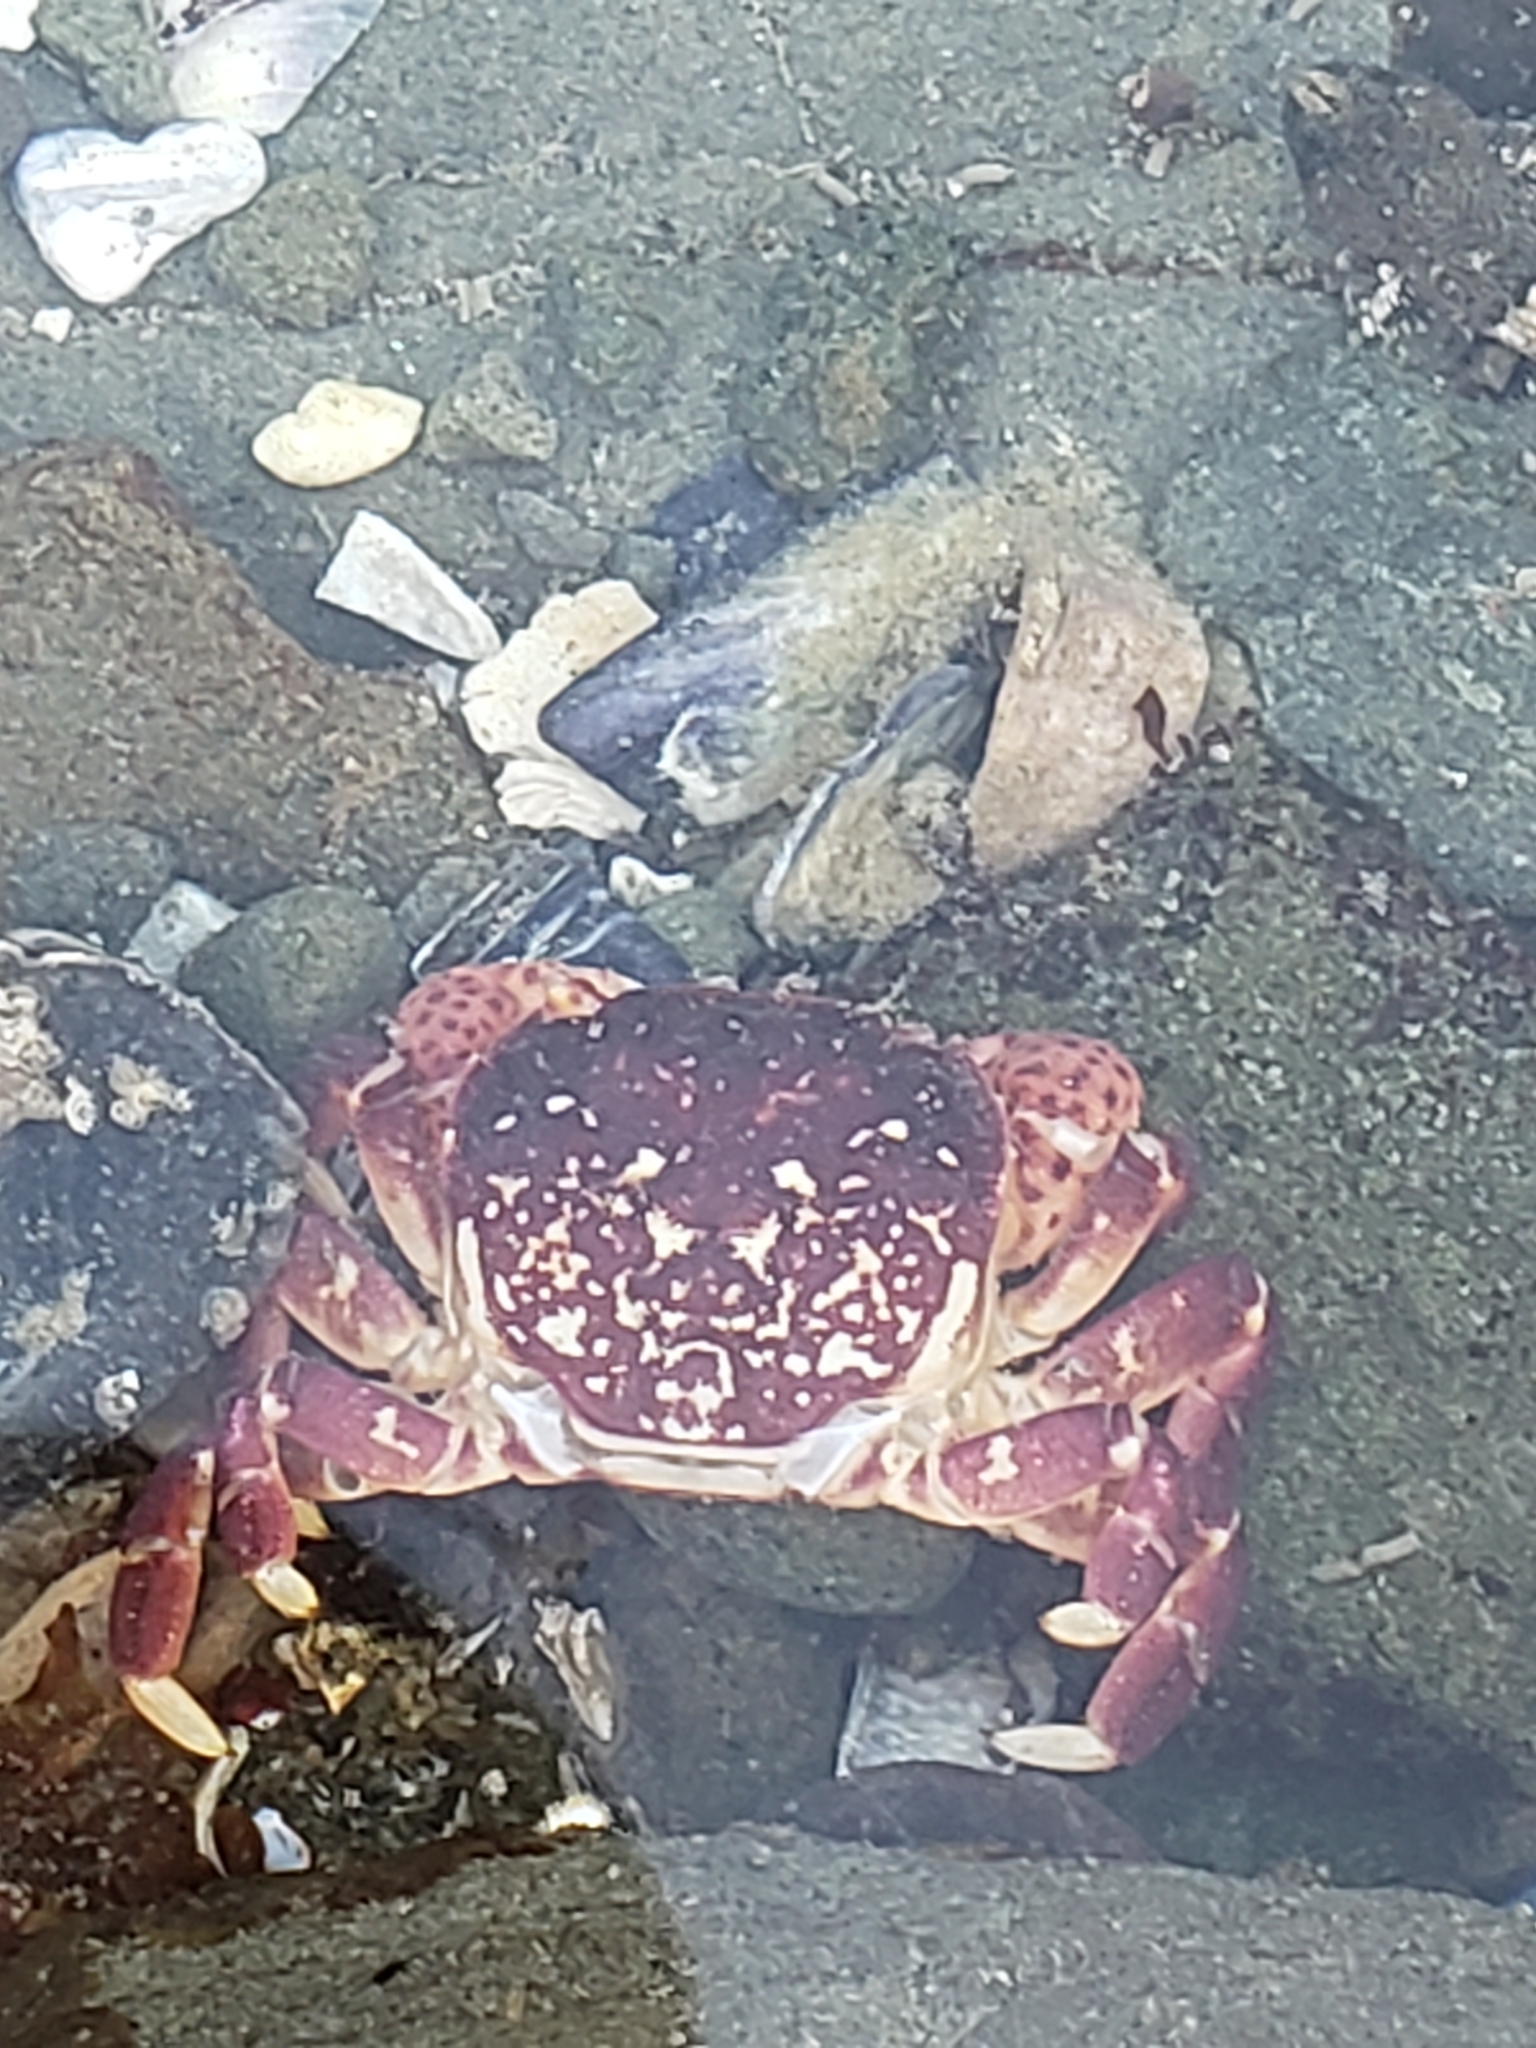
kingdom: Animalia
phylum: Arthropoda
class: Malacostraca
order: Decapoda
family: Varunidae
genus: Hemigrapsus
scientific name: Hemigrapsus nudus
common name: Purple shore crab
